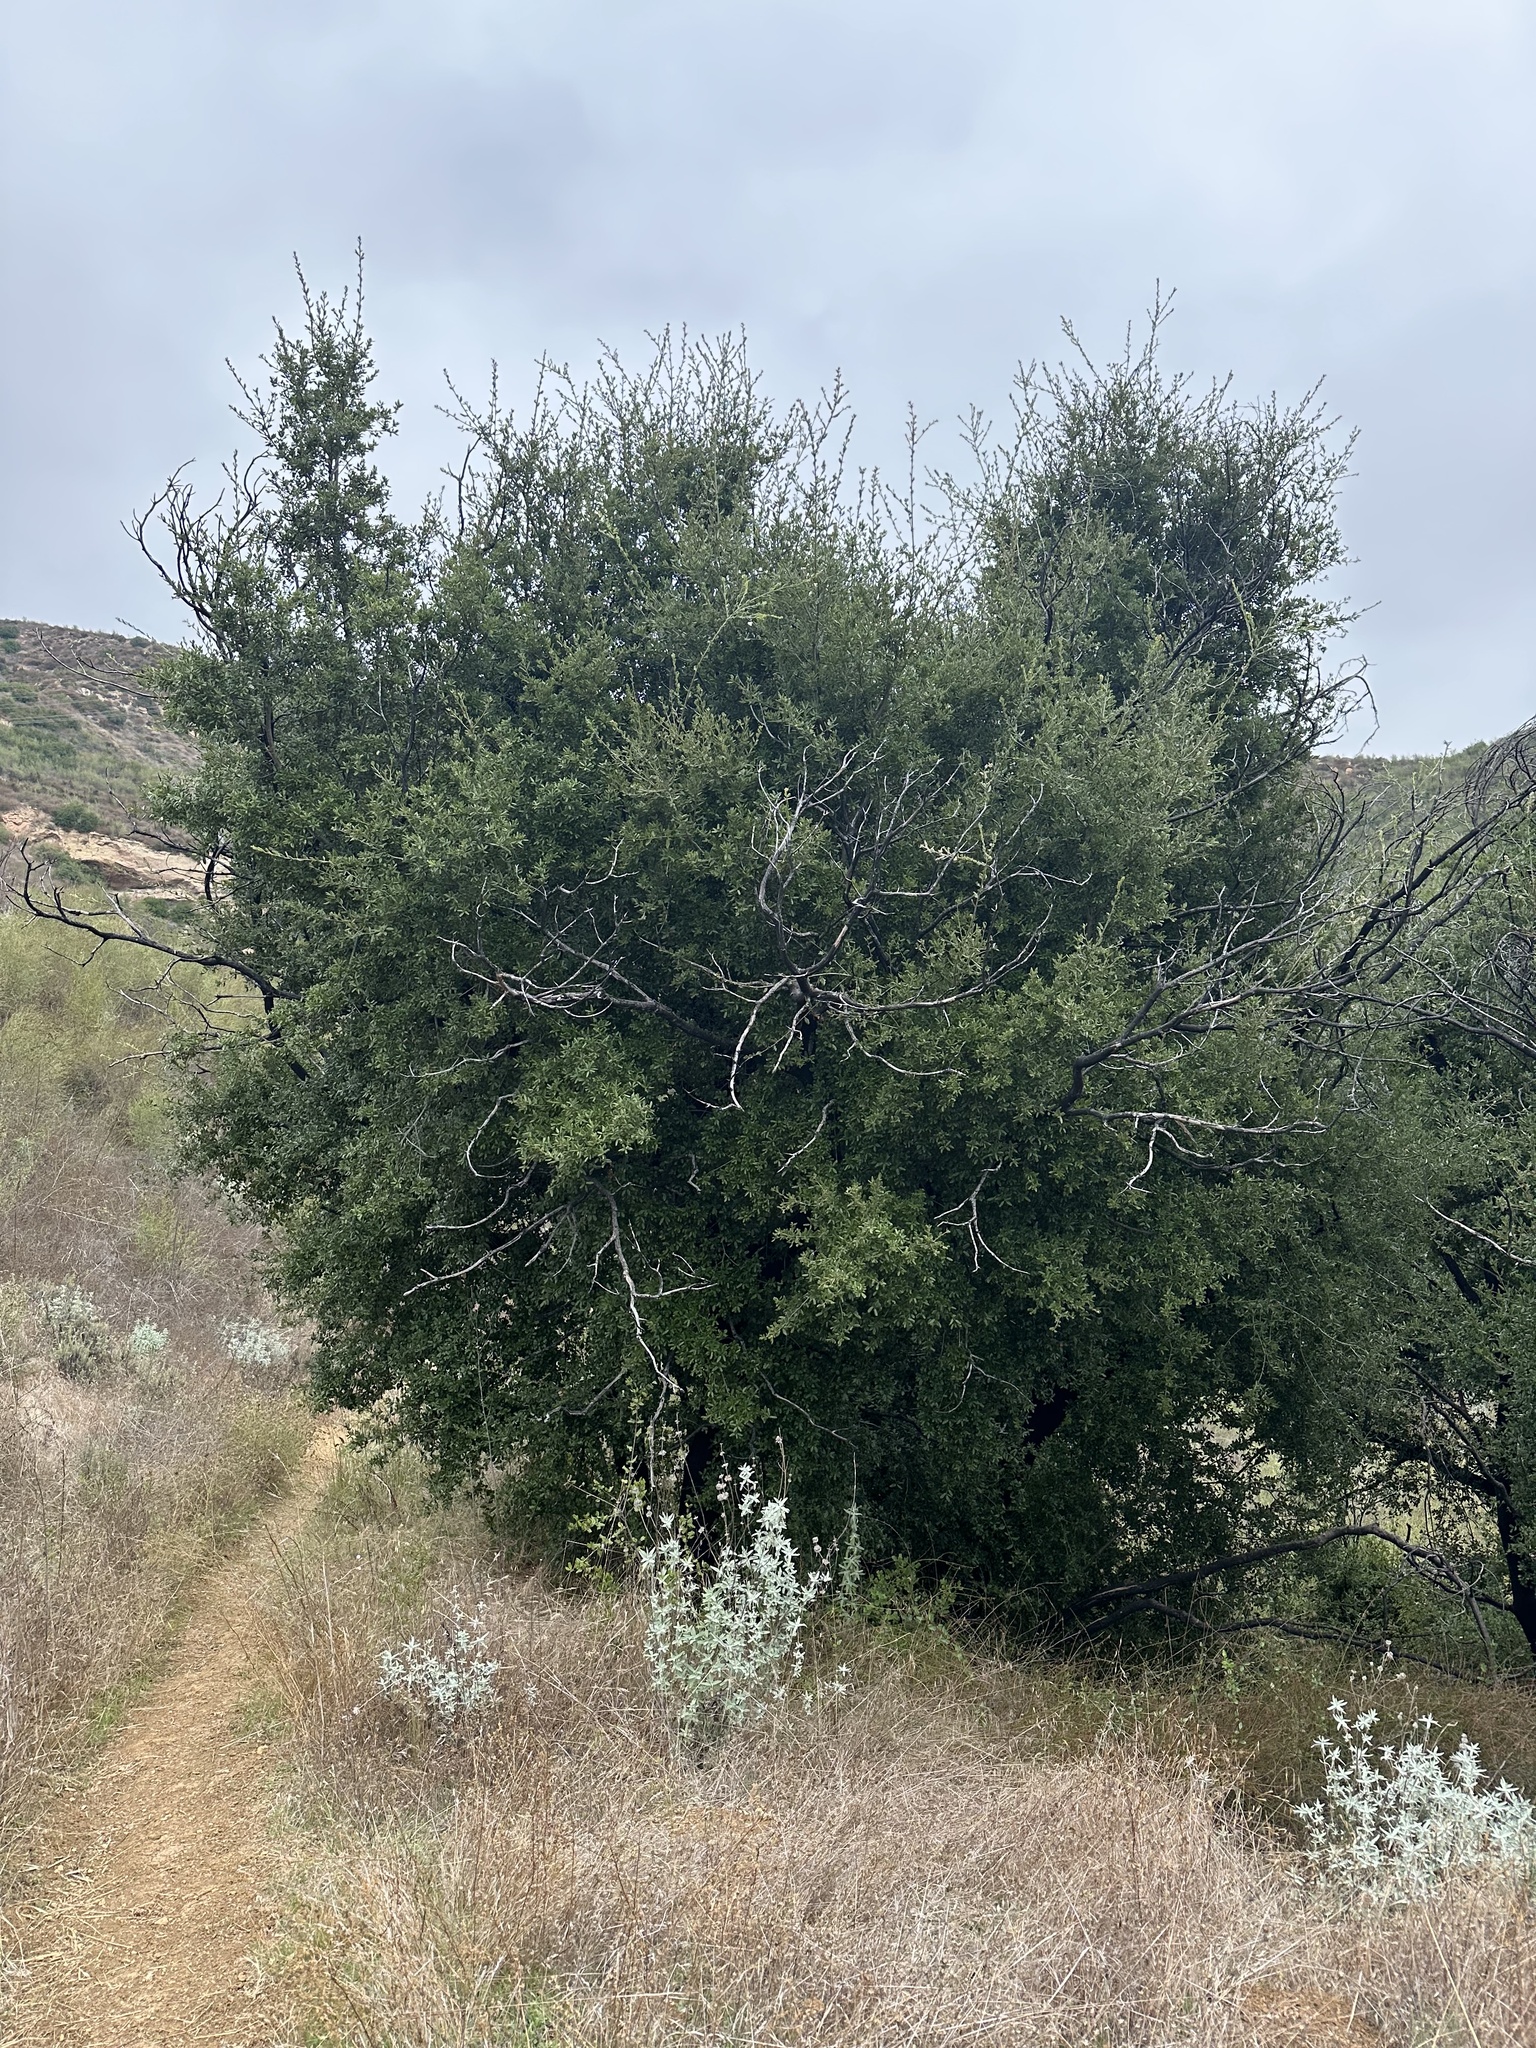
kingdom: Plantae
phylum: Tracheophyta
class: Magnoliopsida
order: Fagales
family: Fagaceae
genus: Quercus
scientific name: Quercus agrifolia
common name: California live oak
